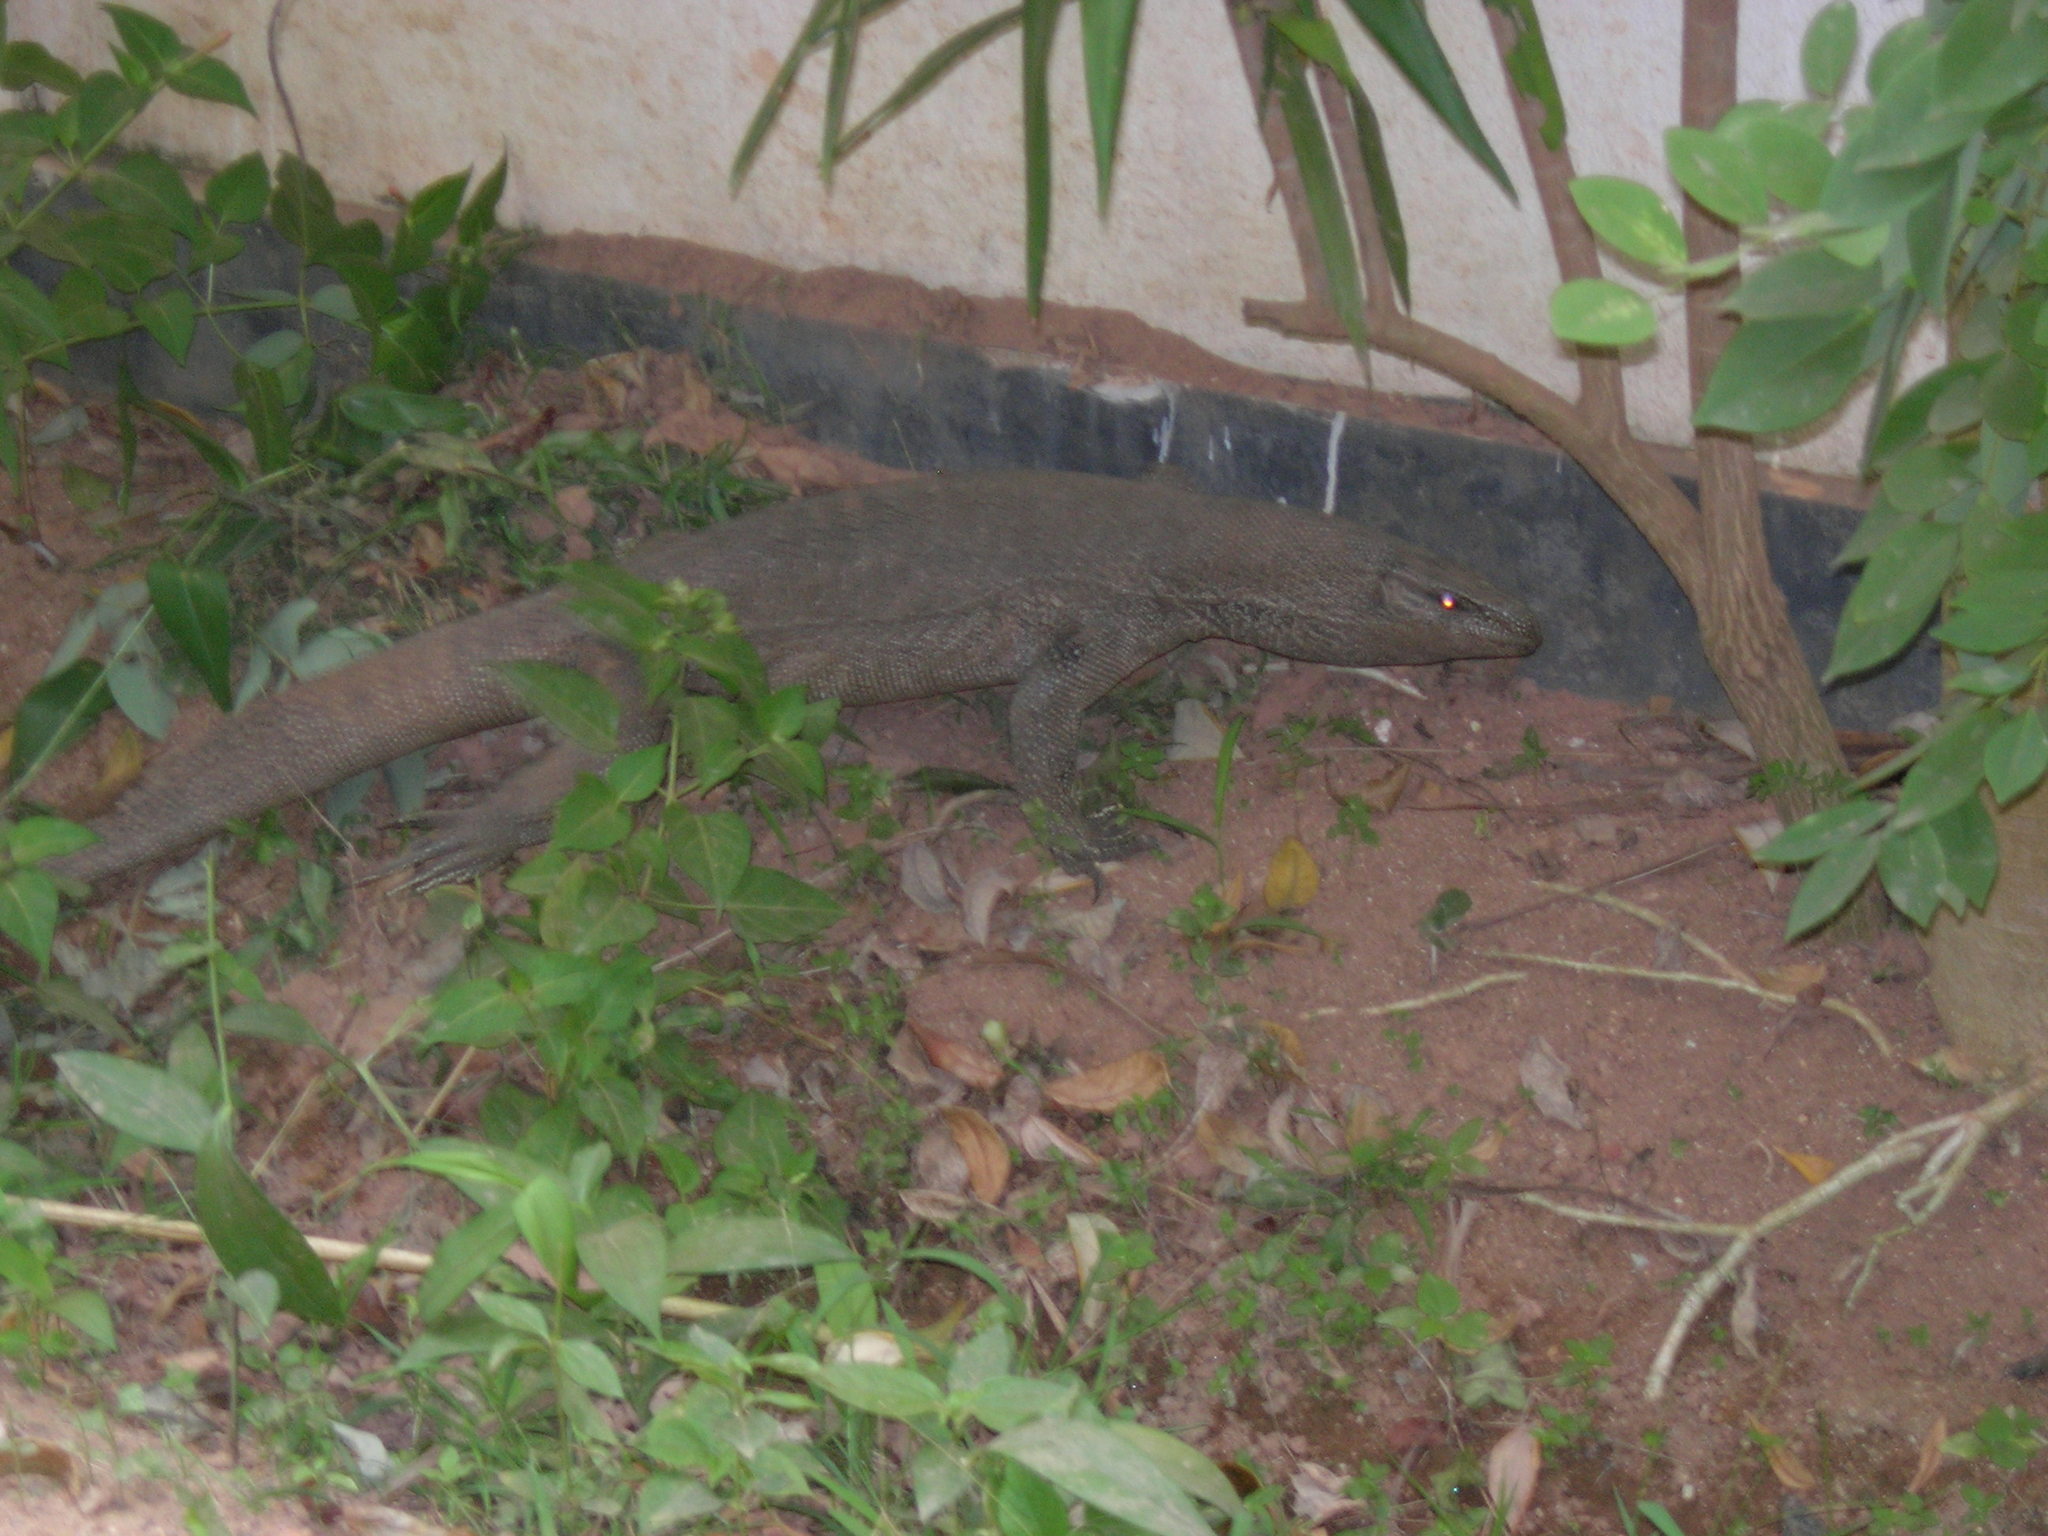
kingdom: Animalia
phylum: Chordata
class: Squamata
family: Varanidae
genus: Varanus
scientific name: Varanus bengalensis
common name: Bengal monitor
